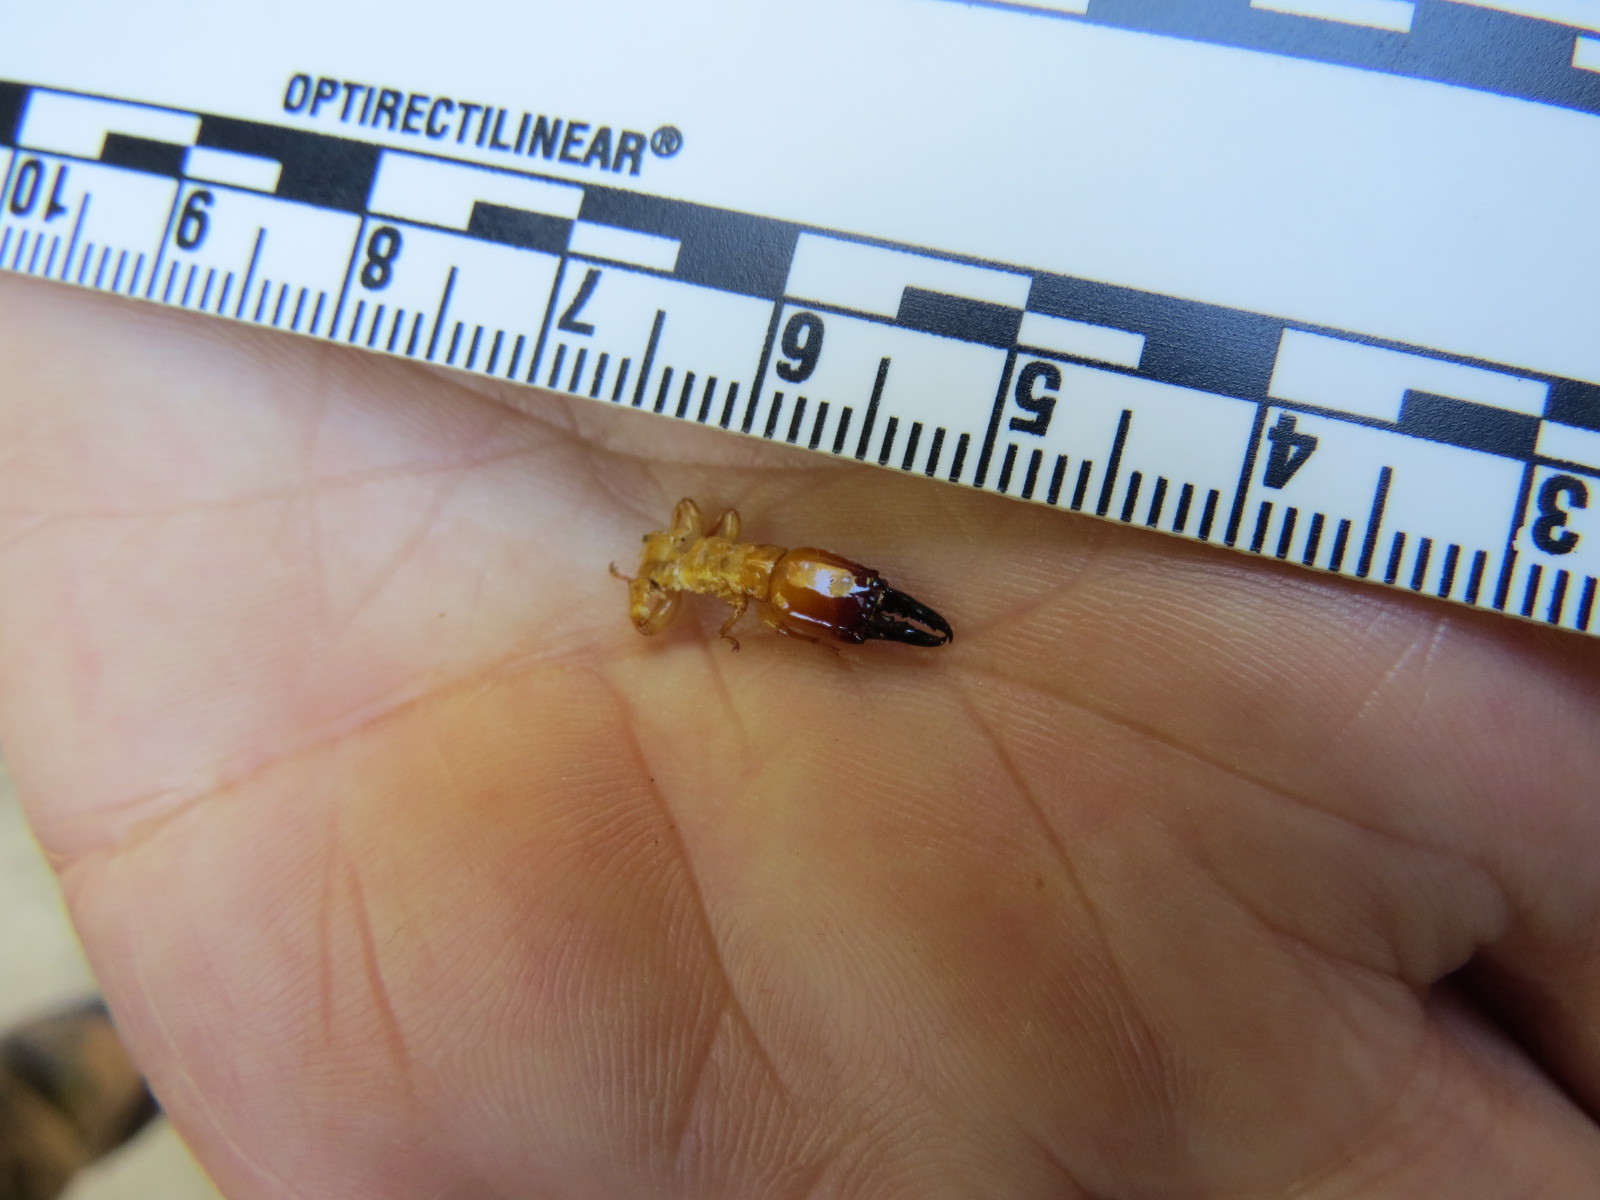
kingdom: Animalia
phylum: Arthropoda
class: Insecta
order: Blattodea
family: Archotermopsidae
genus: Zootermopsis
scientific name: Zootermopsis nevadensis
